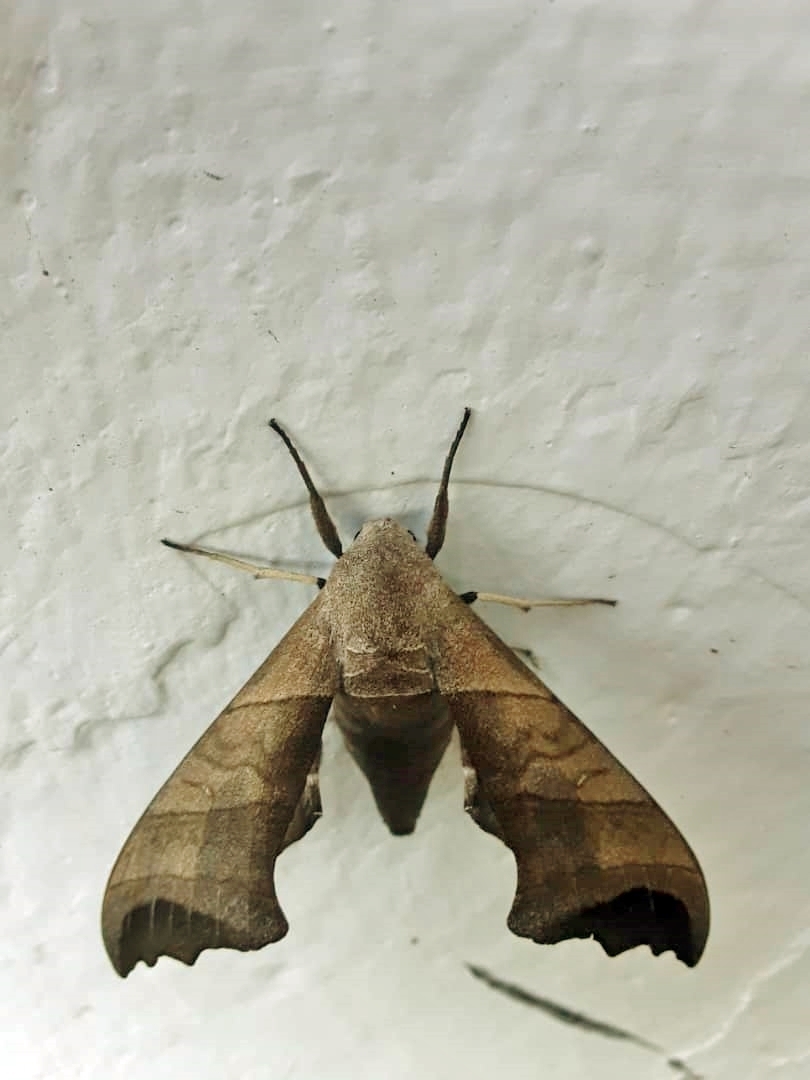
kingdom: Animalia
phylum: Arthropoda
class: Insecta
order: Lepidoptera
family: Sphingidae
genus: Polyptychoides
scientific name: Polyptychoides grayii
